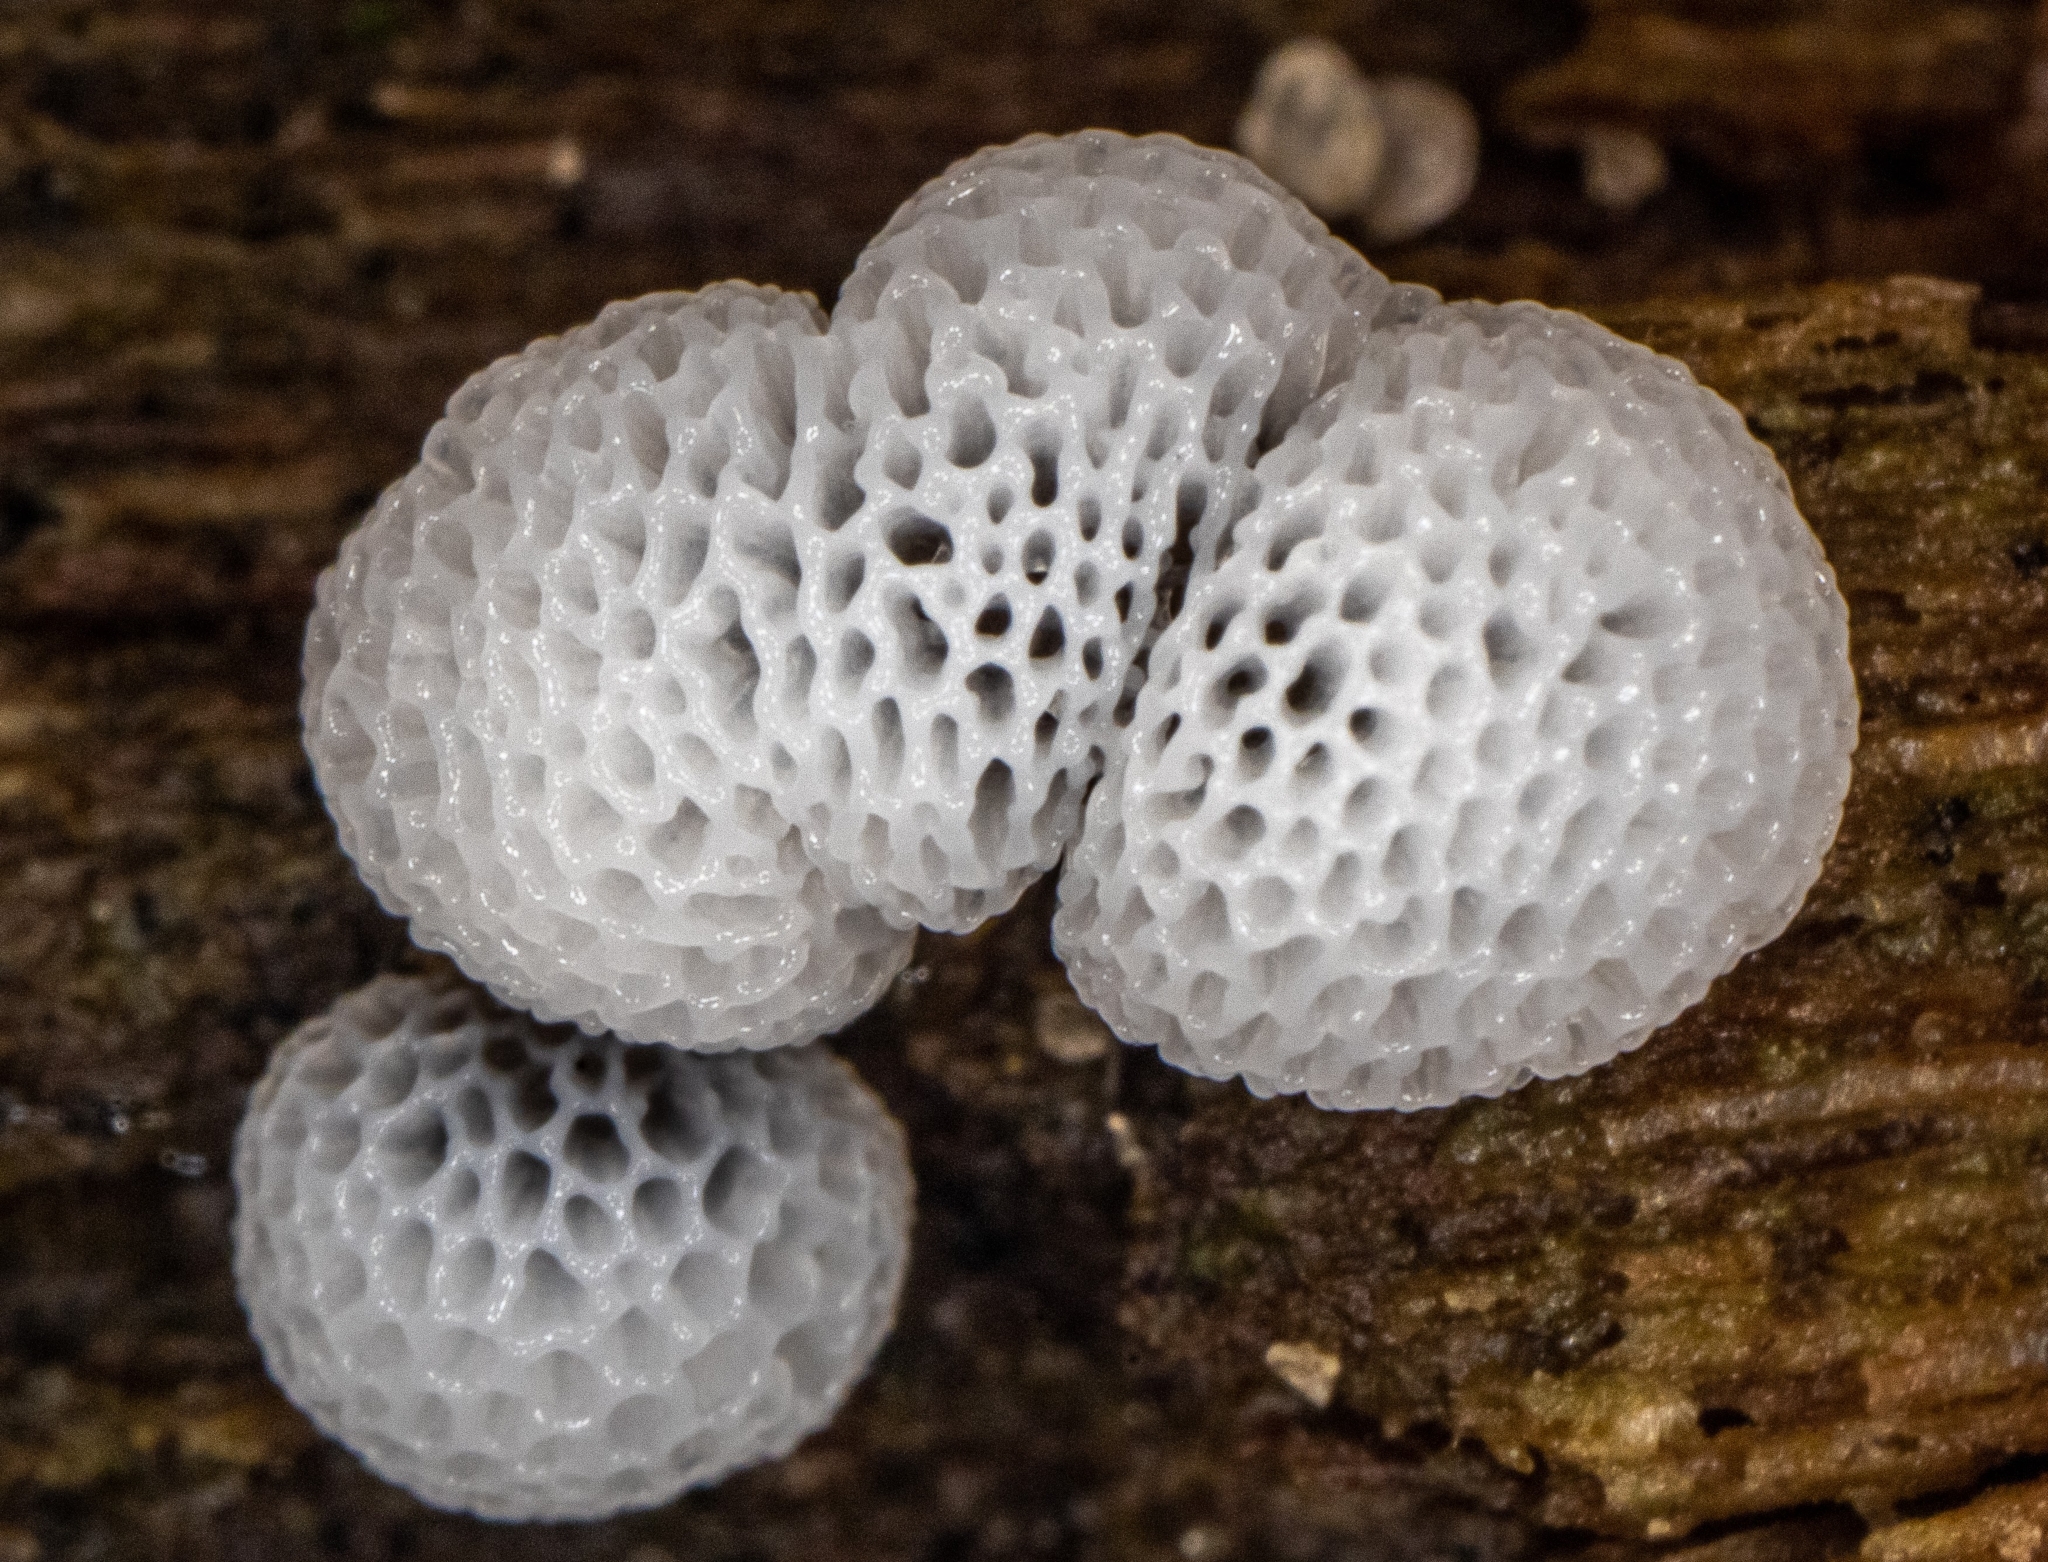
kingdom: Protozoa
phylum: Mycetozoa
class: Protosteliomycetes
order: Ceratiomyxales
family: Ceratiomyxaceae
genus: Ceratiomyxa
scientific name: Ceratiomyxa fruticulosa
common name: Honeycomb coral slime mold
